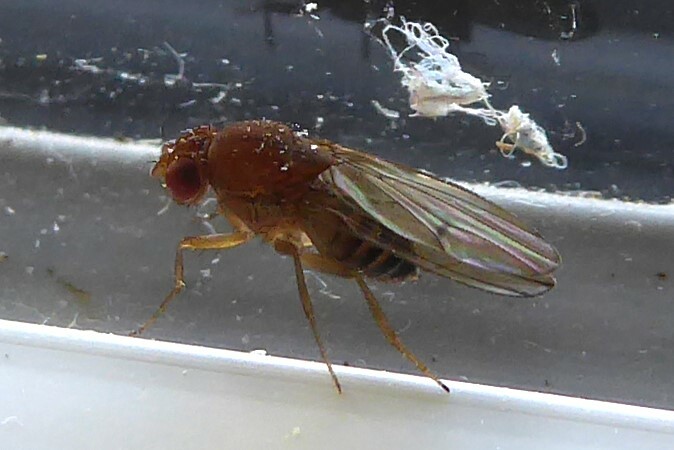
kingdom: Animalia
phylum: Arthropoda
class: Insecta
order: Diptera
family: Drosophilidae
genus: Drosophila
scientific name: Drosophila immigrans
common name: Pomace fly
